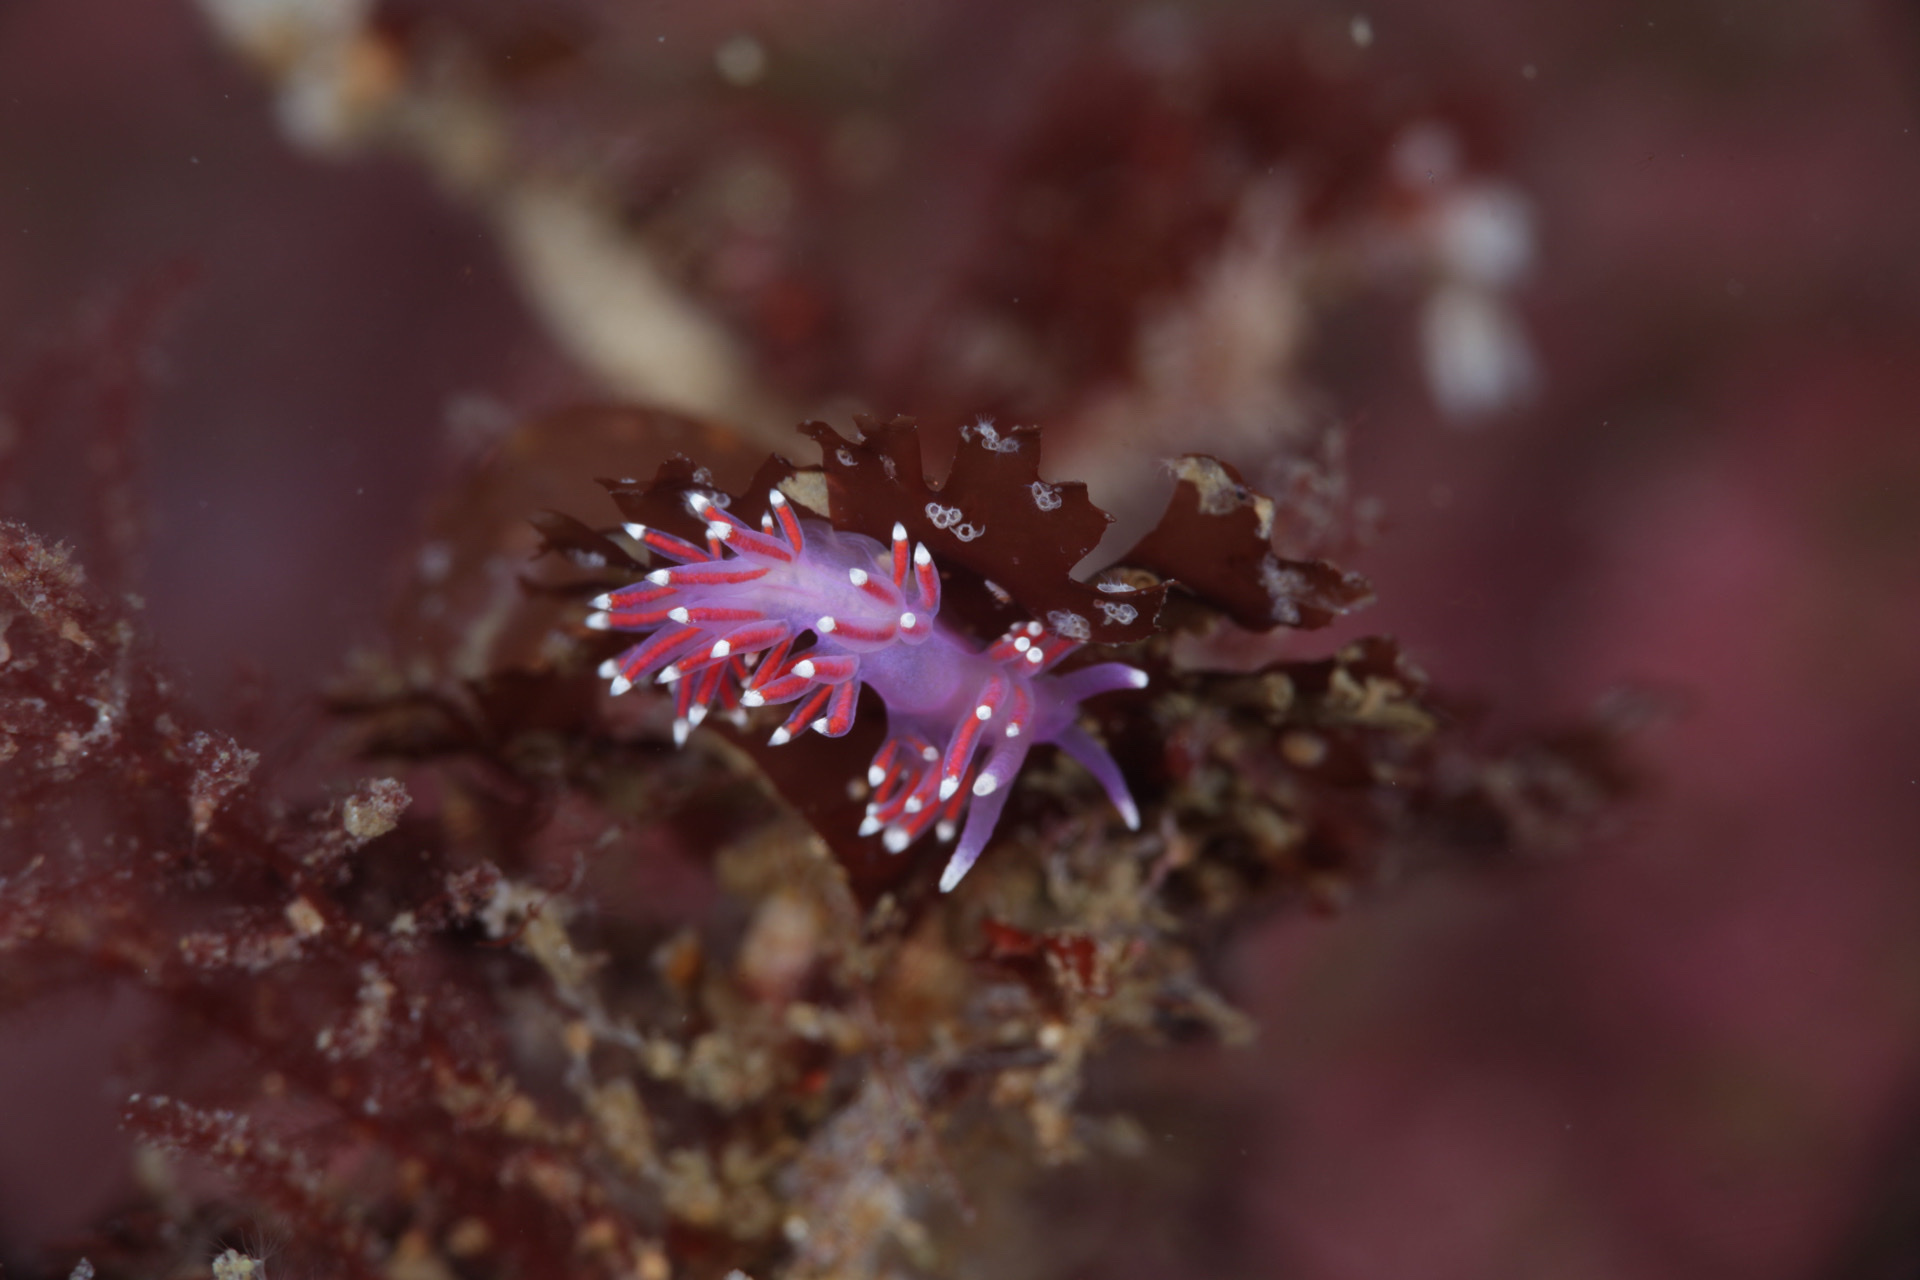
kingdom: Animalia
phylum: Mollusca
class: Gastropoda
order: Nudibranchia
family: Flabellinidae
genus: Edmundsella
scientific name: Edmundsella pedata
